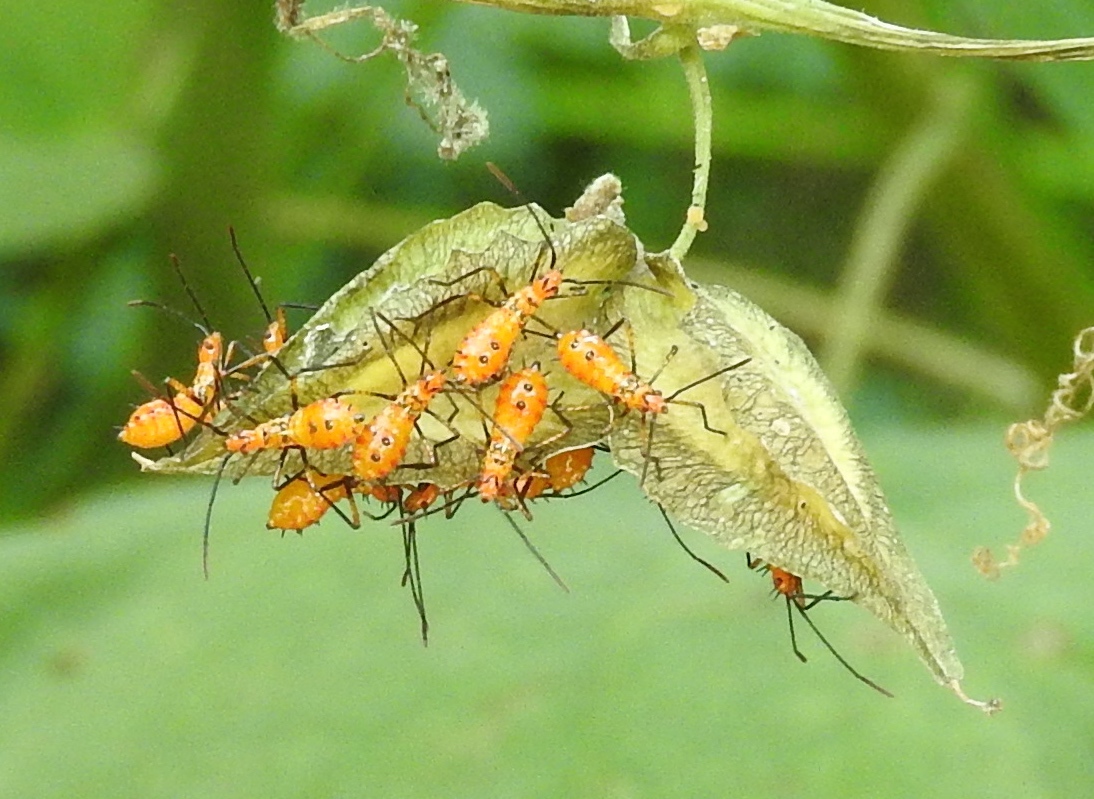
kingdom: Animalia
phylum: Arthropoda
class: Insecta
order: Hemiptera
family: Coreidae
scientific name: Coreidae
